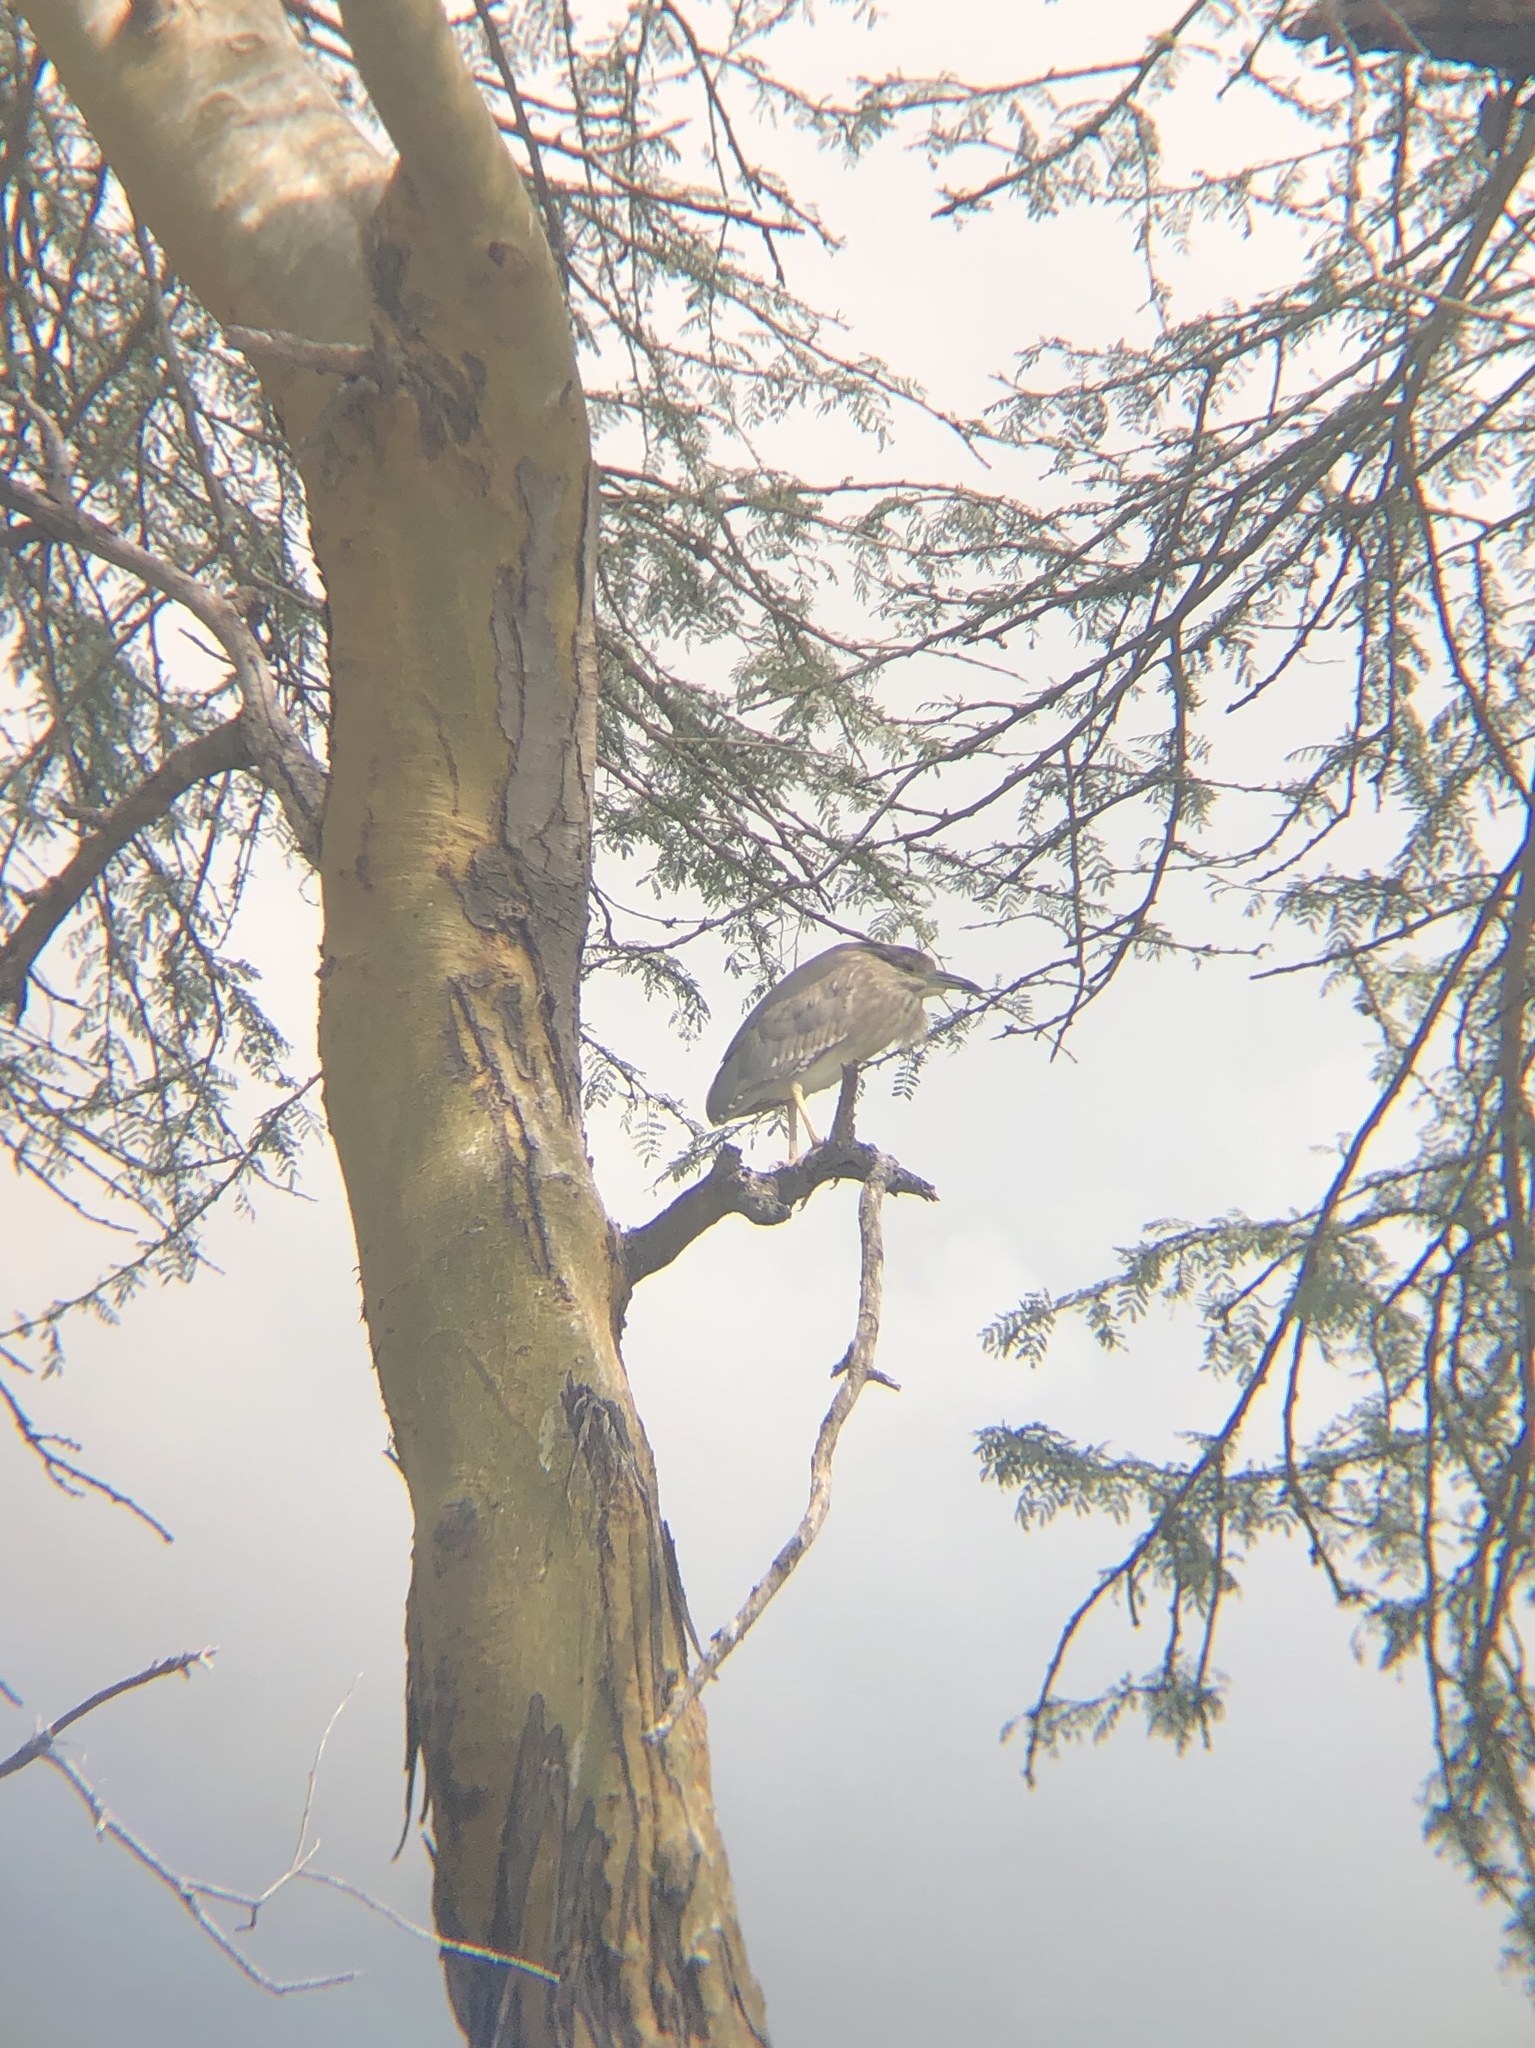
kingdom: Animalia
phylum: Chordata
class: Aves
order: Pelecaniformes
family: Ardeidae
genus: Nycticorax
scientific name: Nycticorax nycticorax
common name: Black-crowned night heron
